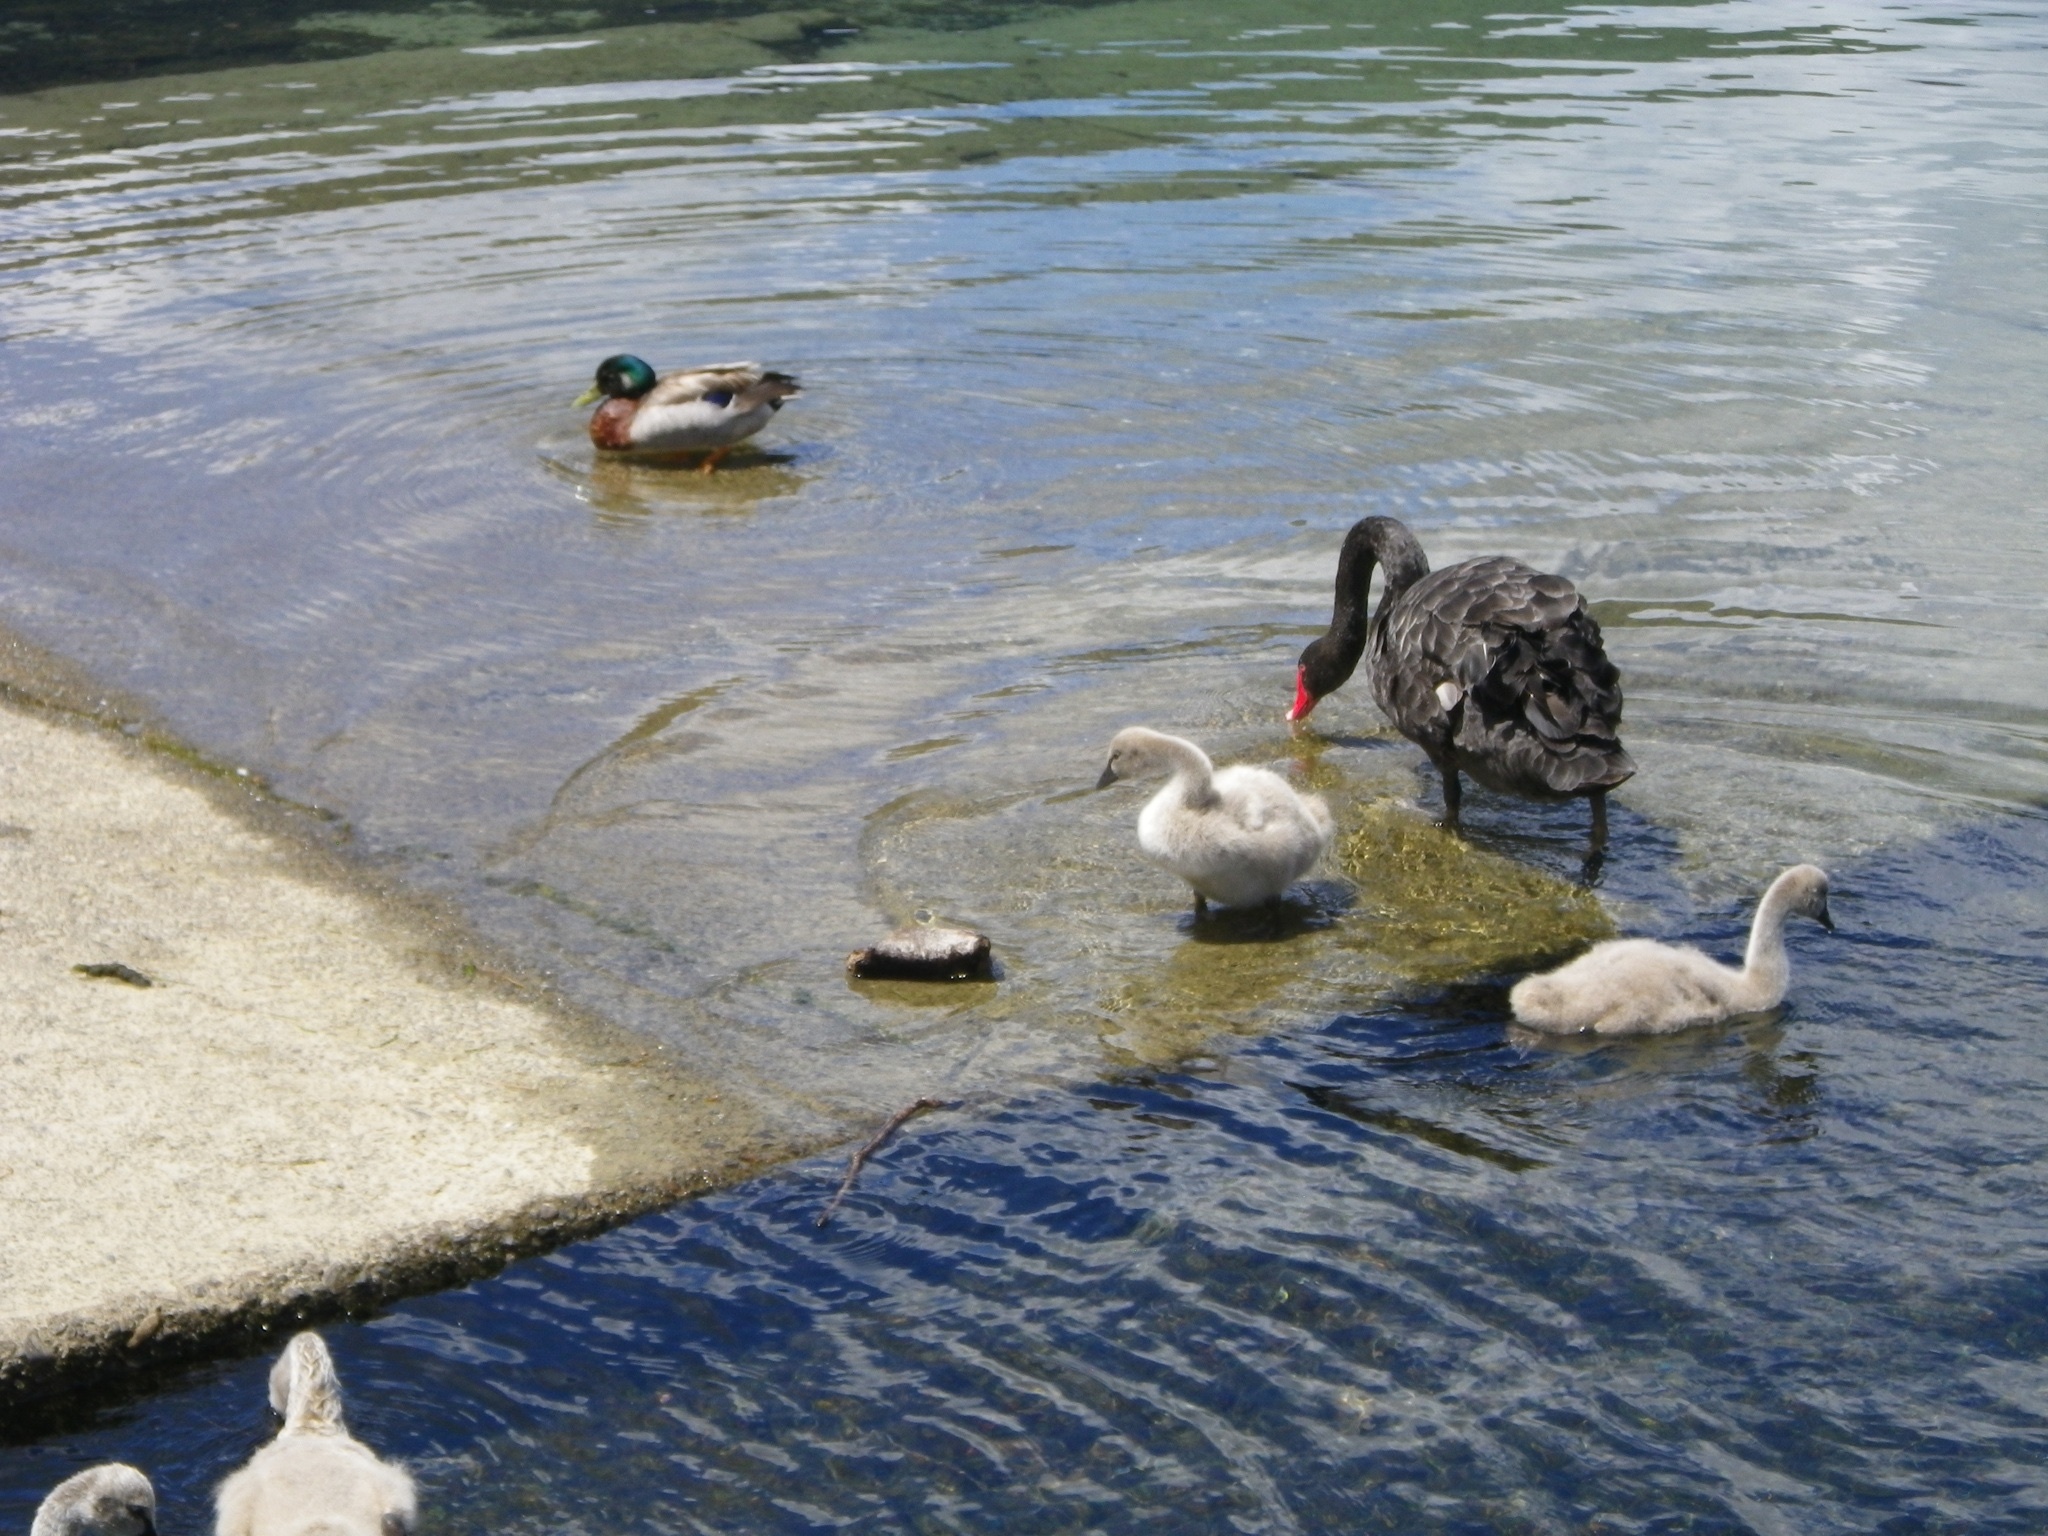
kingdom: Animalia
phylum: Chordata
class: Aves
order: Anseriformes
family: Anatidae
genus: Cygnus
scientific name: Cygnus atratus
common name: Black swan
